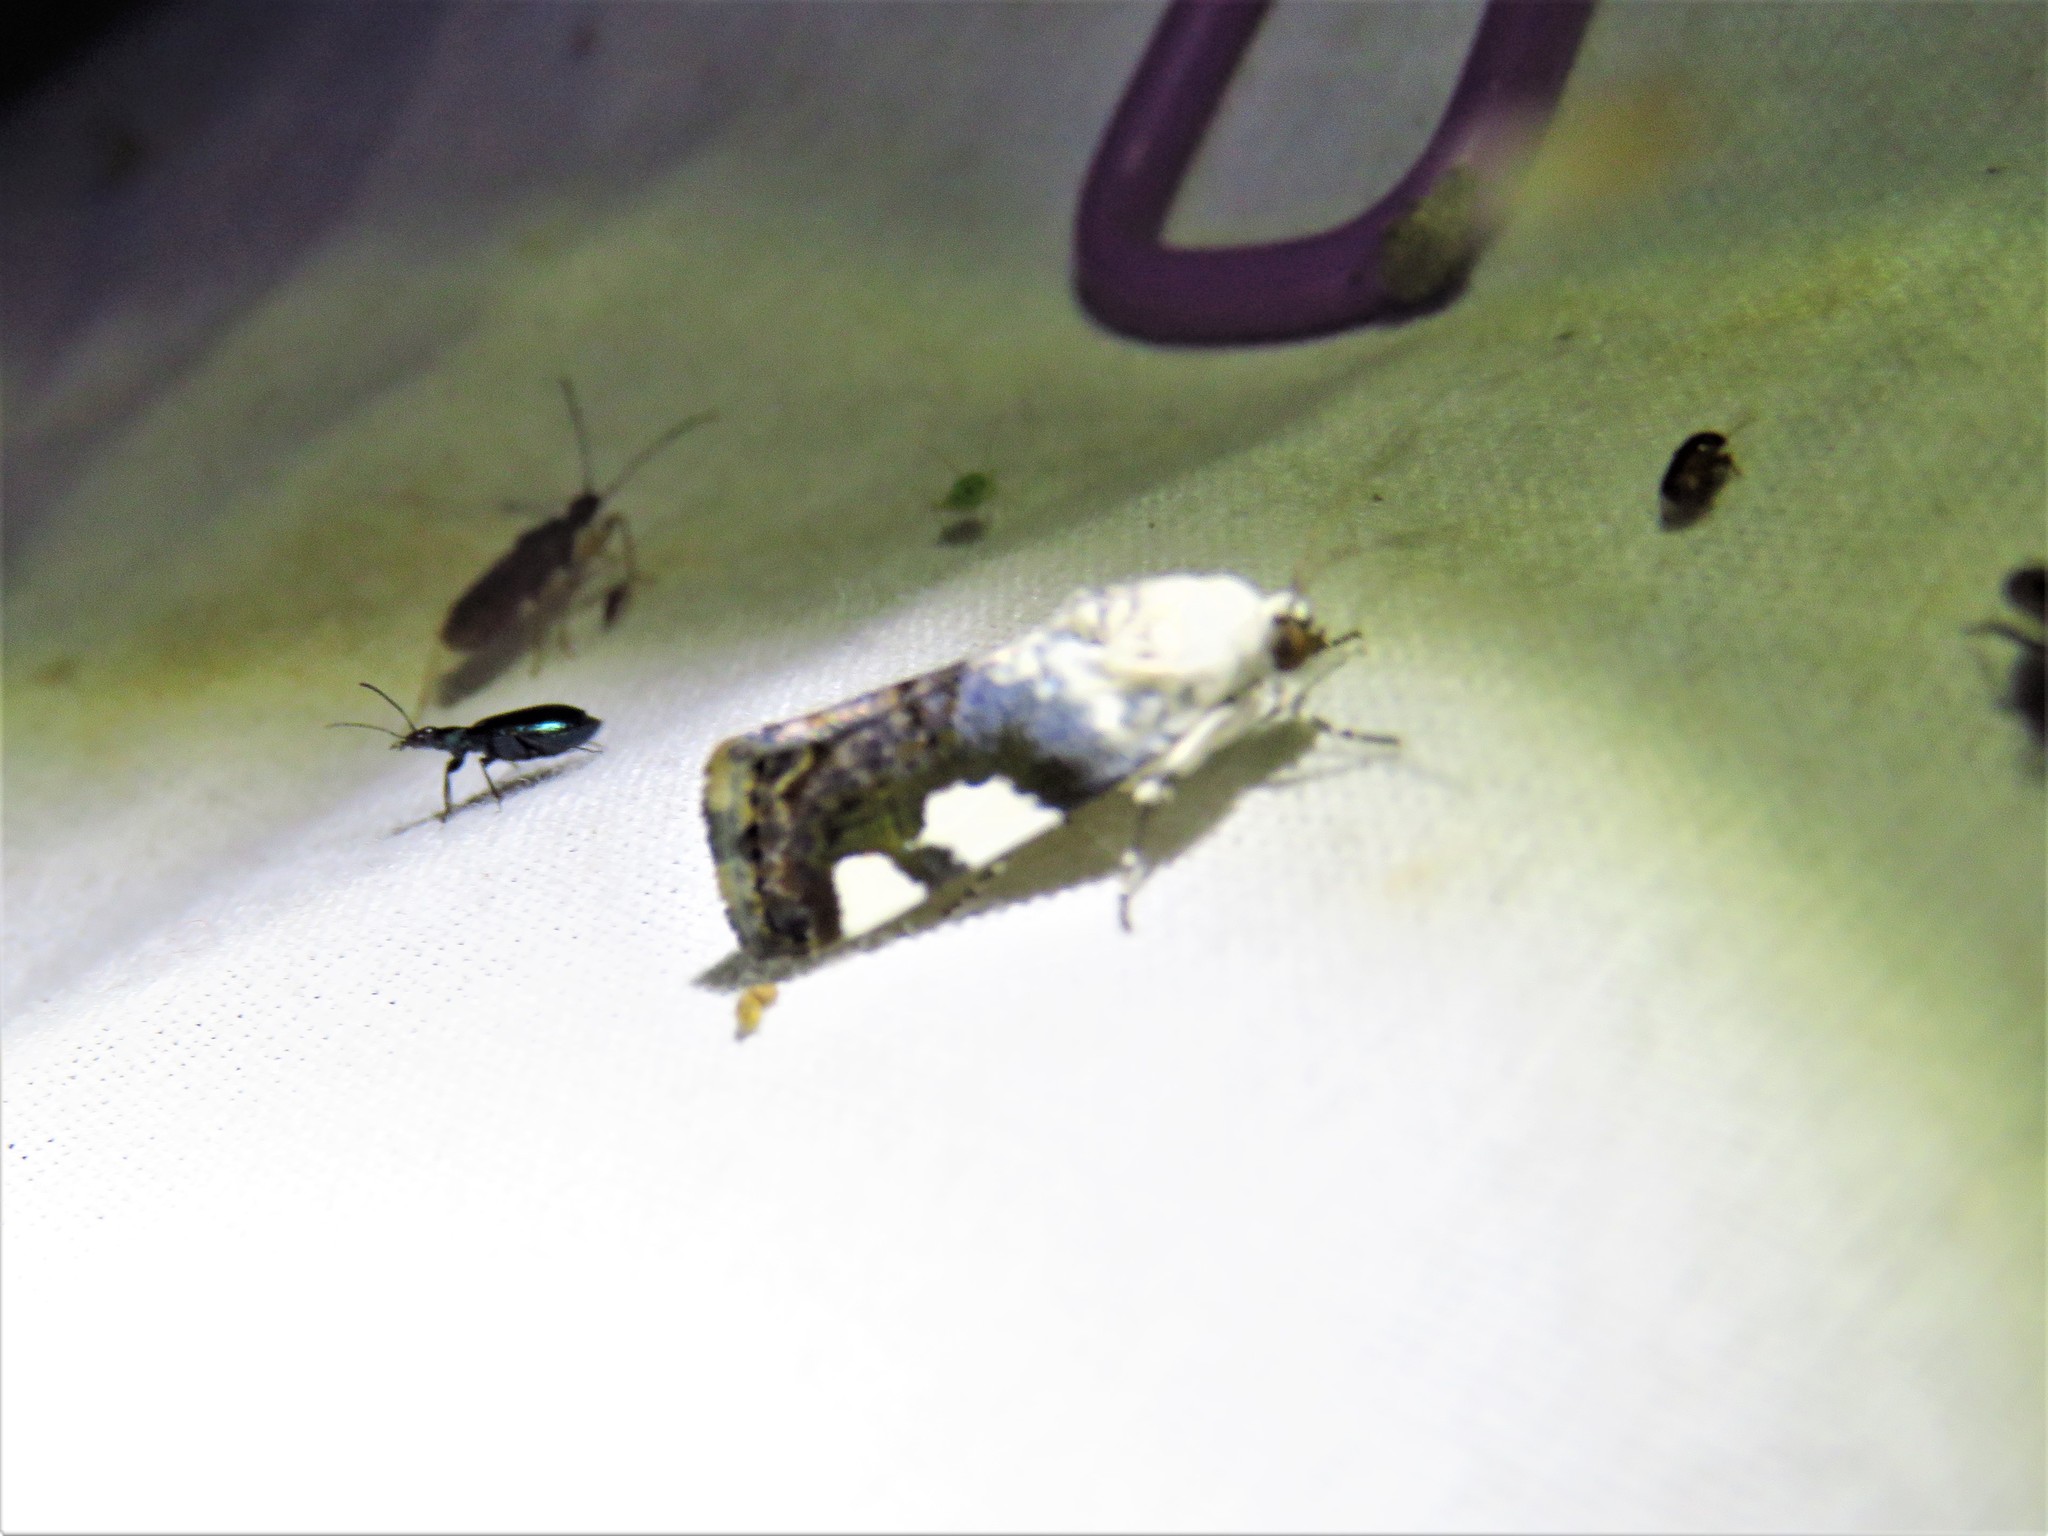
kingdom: Animalia
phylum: Arthropoda
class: Insecta
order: Lepidoptera
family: Noctuidae
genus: Acontia
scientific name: Acontia quadriplaga
